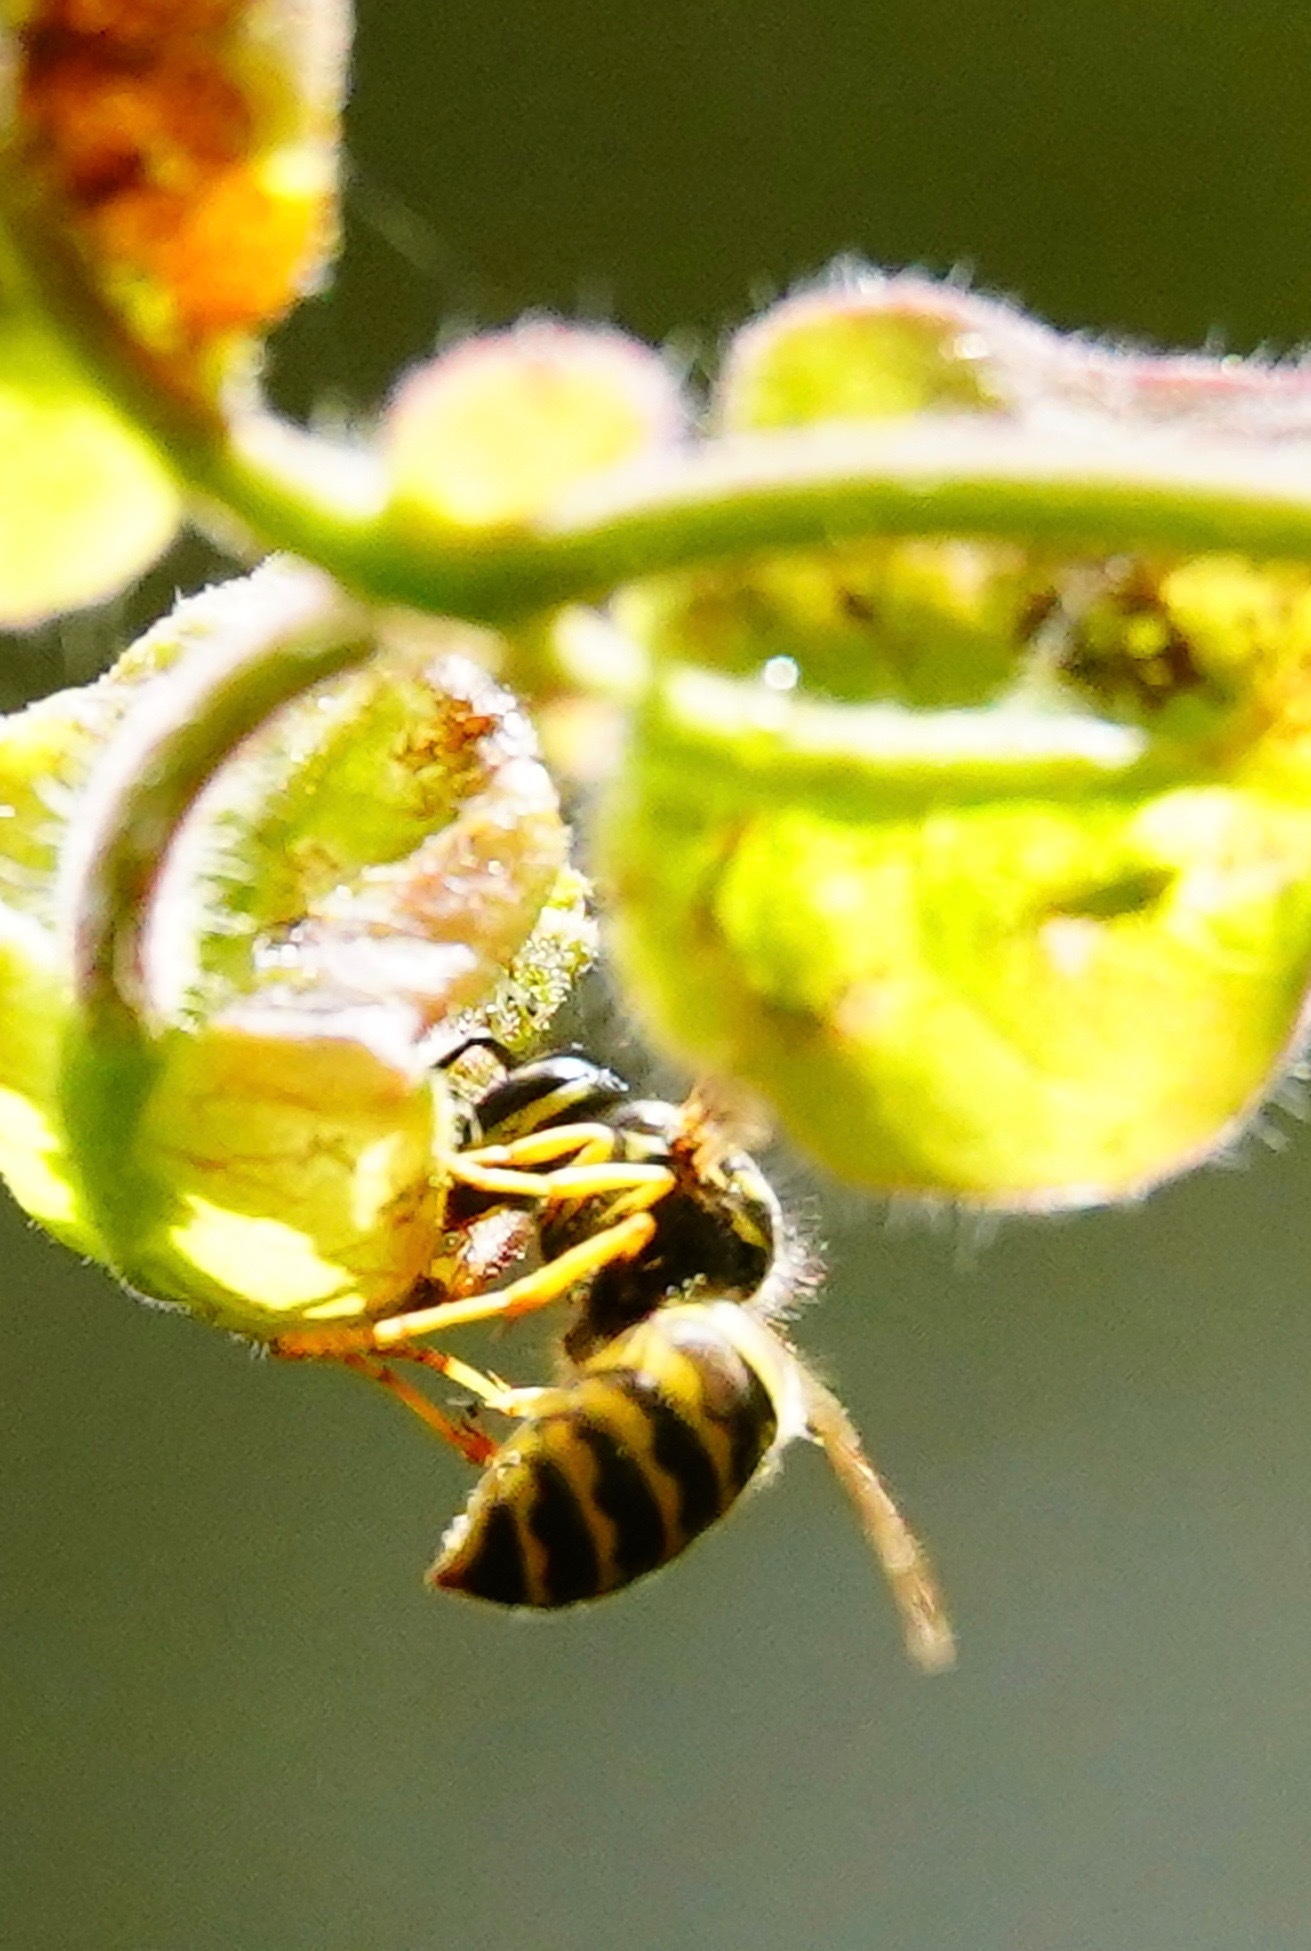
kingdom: Animalia
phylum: Arthropoda
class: Insecta
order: Hymenoptera
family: Vespidae
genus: Vespula
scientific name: Vespula alascensis
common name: Alaska yellowjacket
